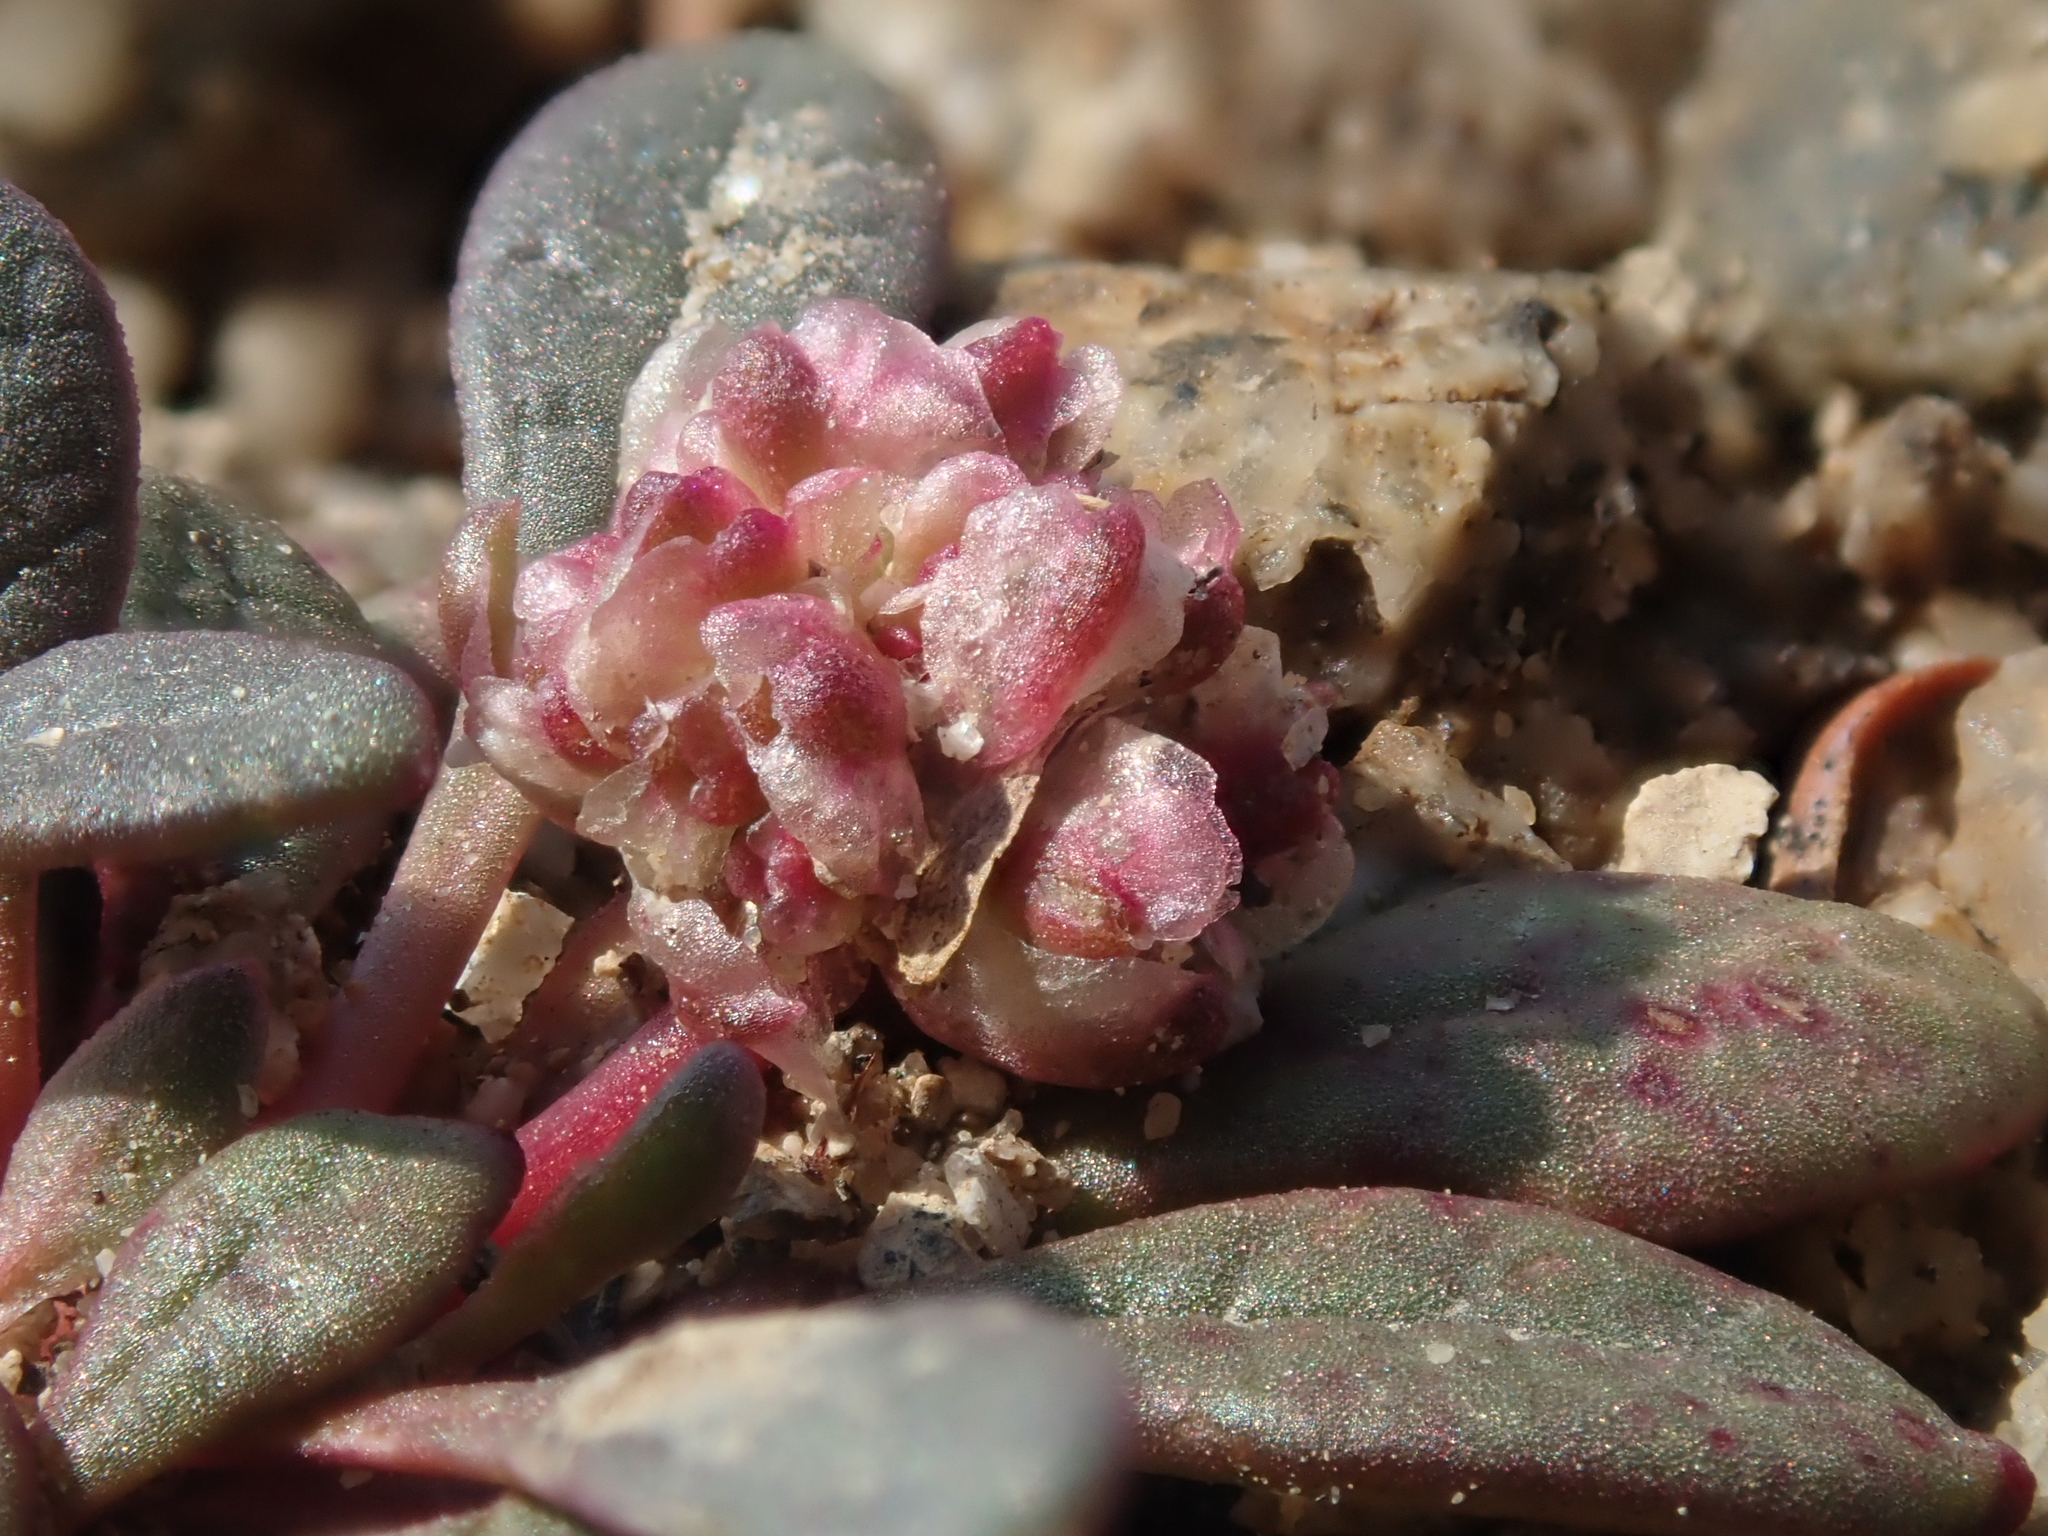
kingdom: Plantae
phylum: Tracheophyta
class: Magnoliopsida
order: Caryophyllales
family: Montiaceae
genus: Calyptridium
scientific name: Calyptridium umbellatum
